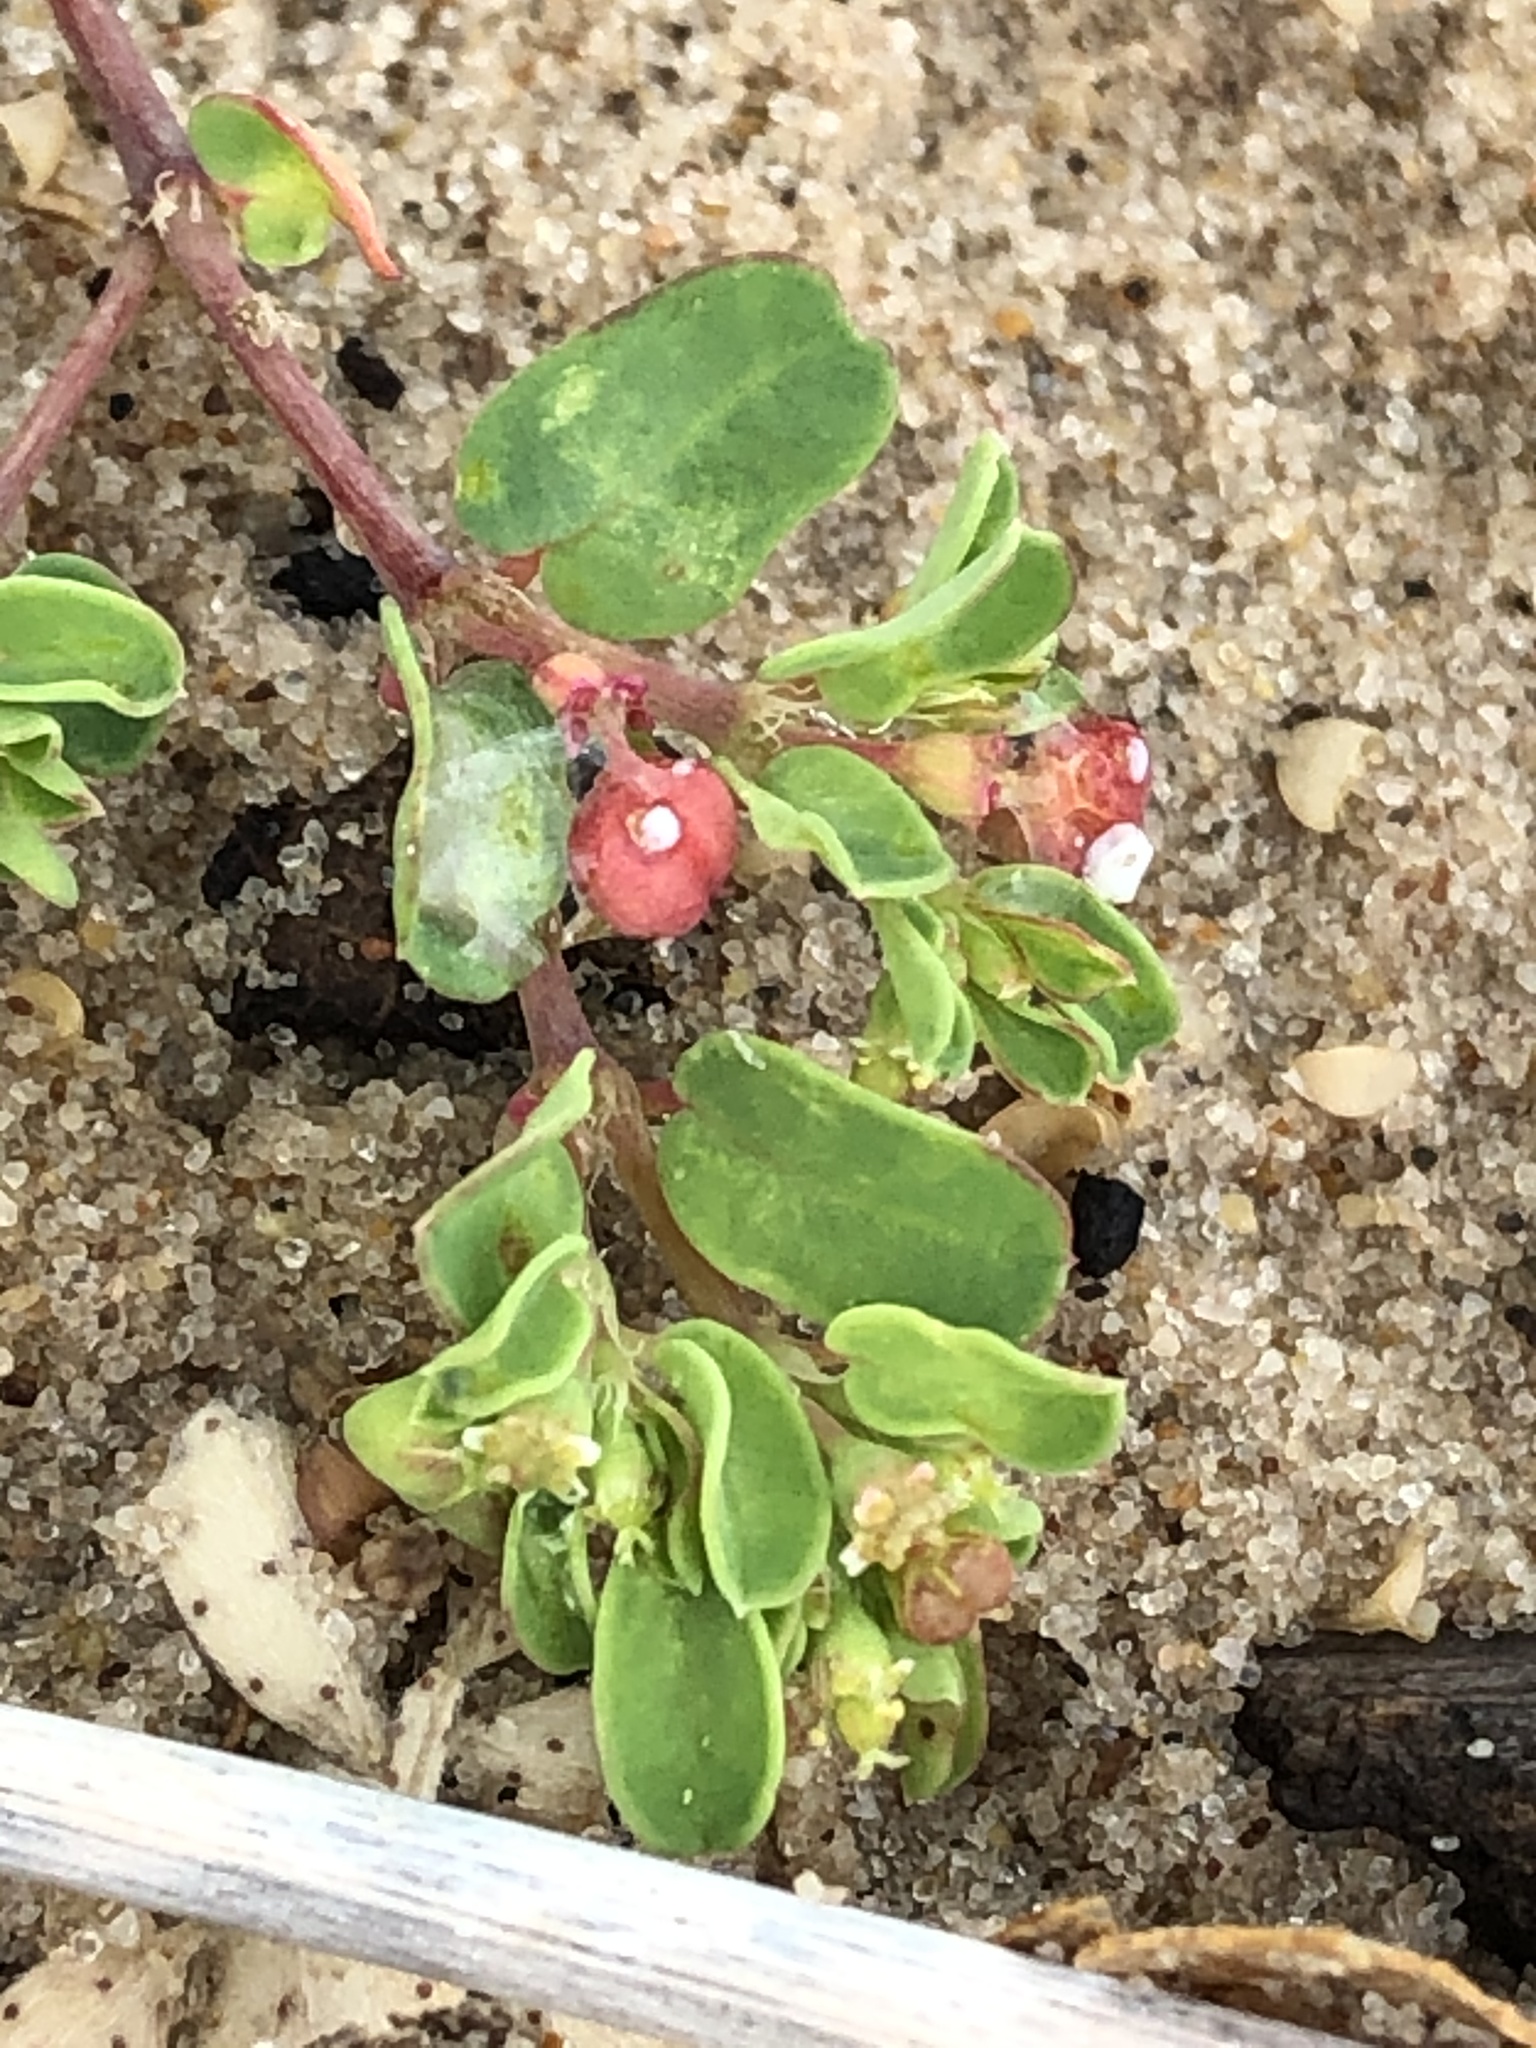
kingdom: Plantae
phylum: Tracheophyta
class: Magnoliopsida
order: Malpighiales
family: Euphorbiaceae
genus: Euphorbia
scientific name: Euphorbia geyeri
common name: Geyer's spurge
